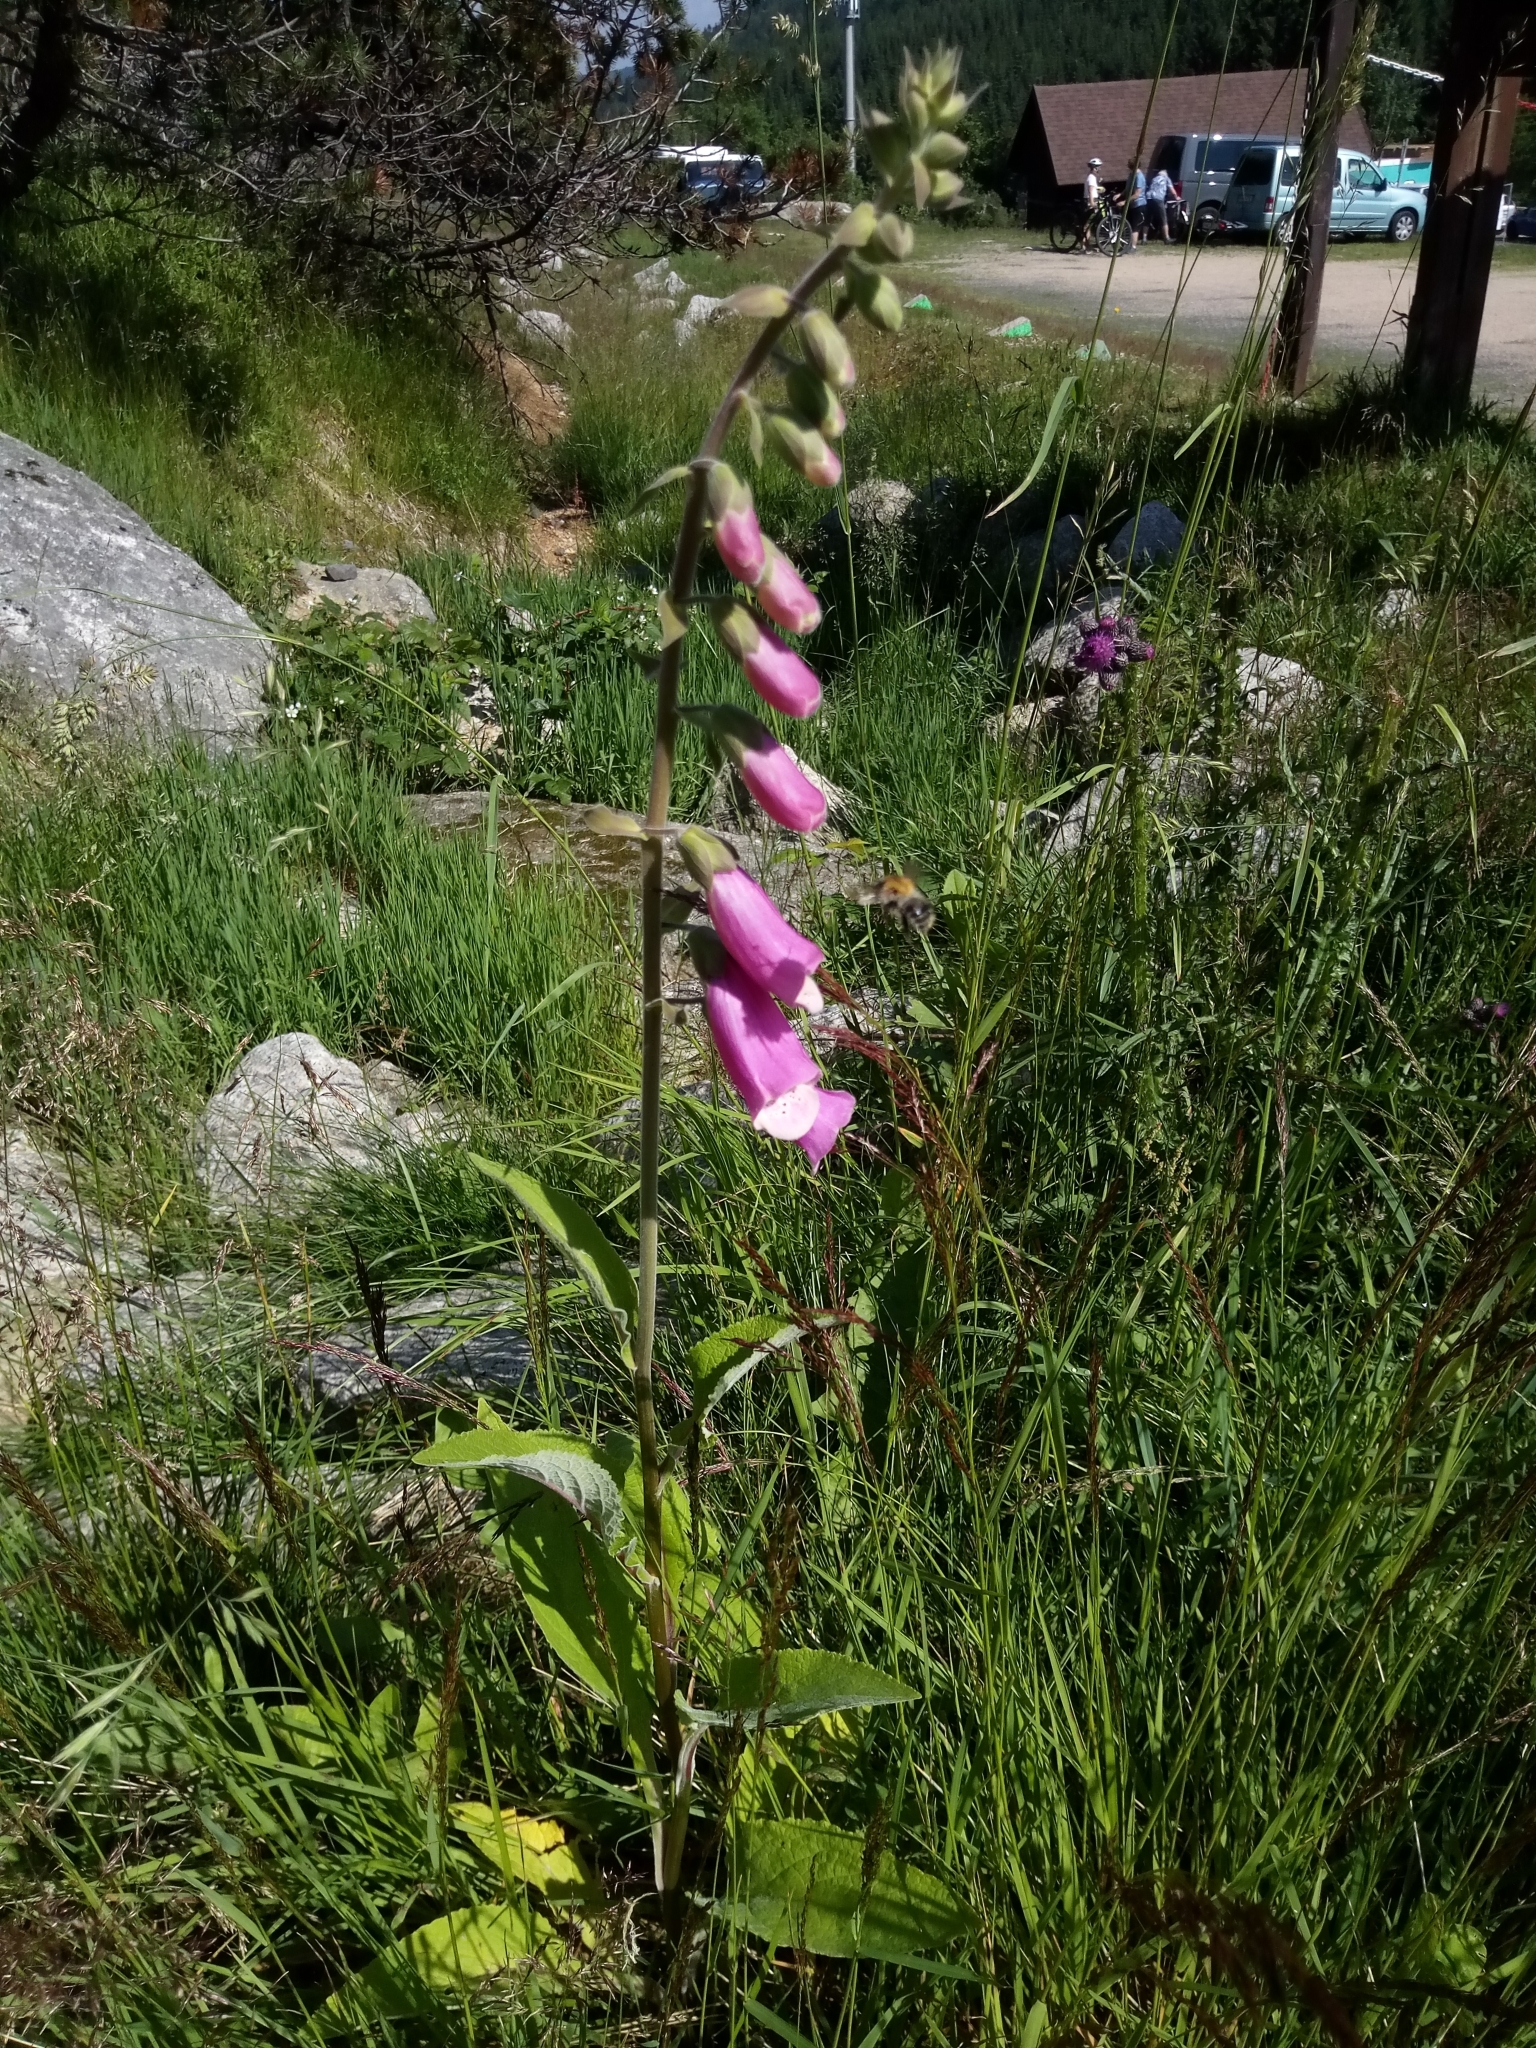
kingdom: Plantae
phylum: Tracheophyta
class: Magnoliopsida
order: Lamiales
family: Plantaginaceae
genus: Digitalis
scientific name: Digitalis purpurea
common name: Foxglove
